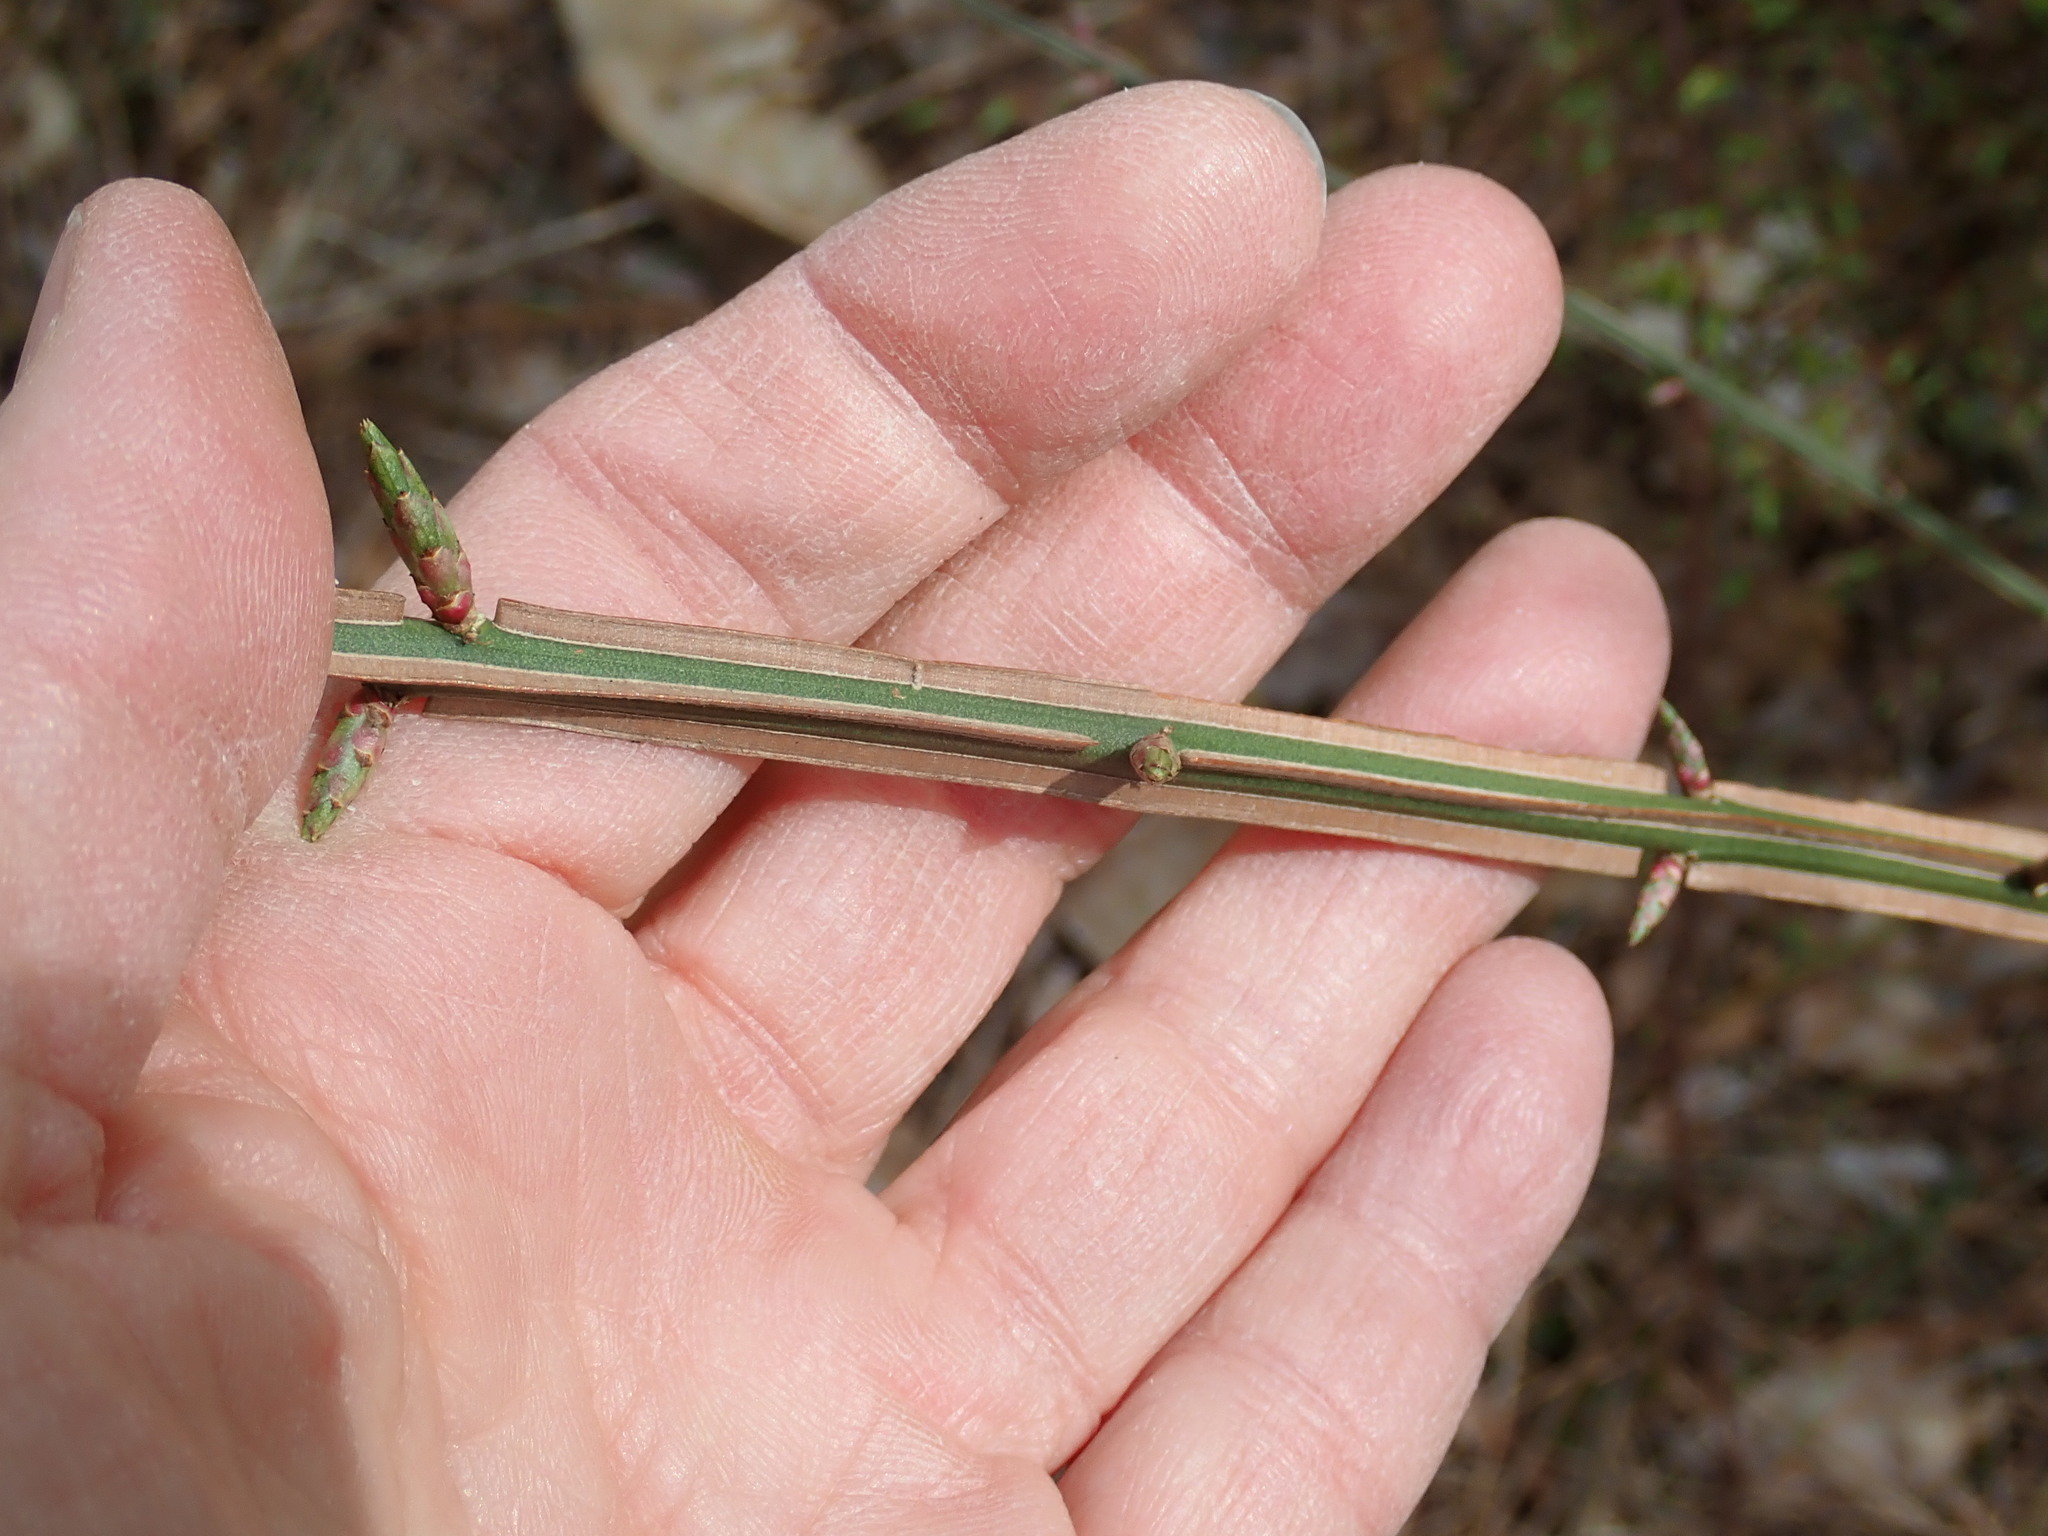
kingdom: Plantae
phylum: Tracheophyta
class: Magnoliopsida
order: Celastrales
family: Celastraceae
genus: Euonymus
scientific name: Euonymus alatus
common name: Winged euonymus
